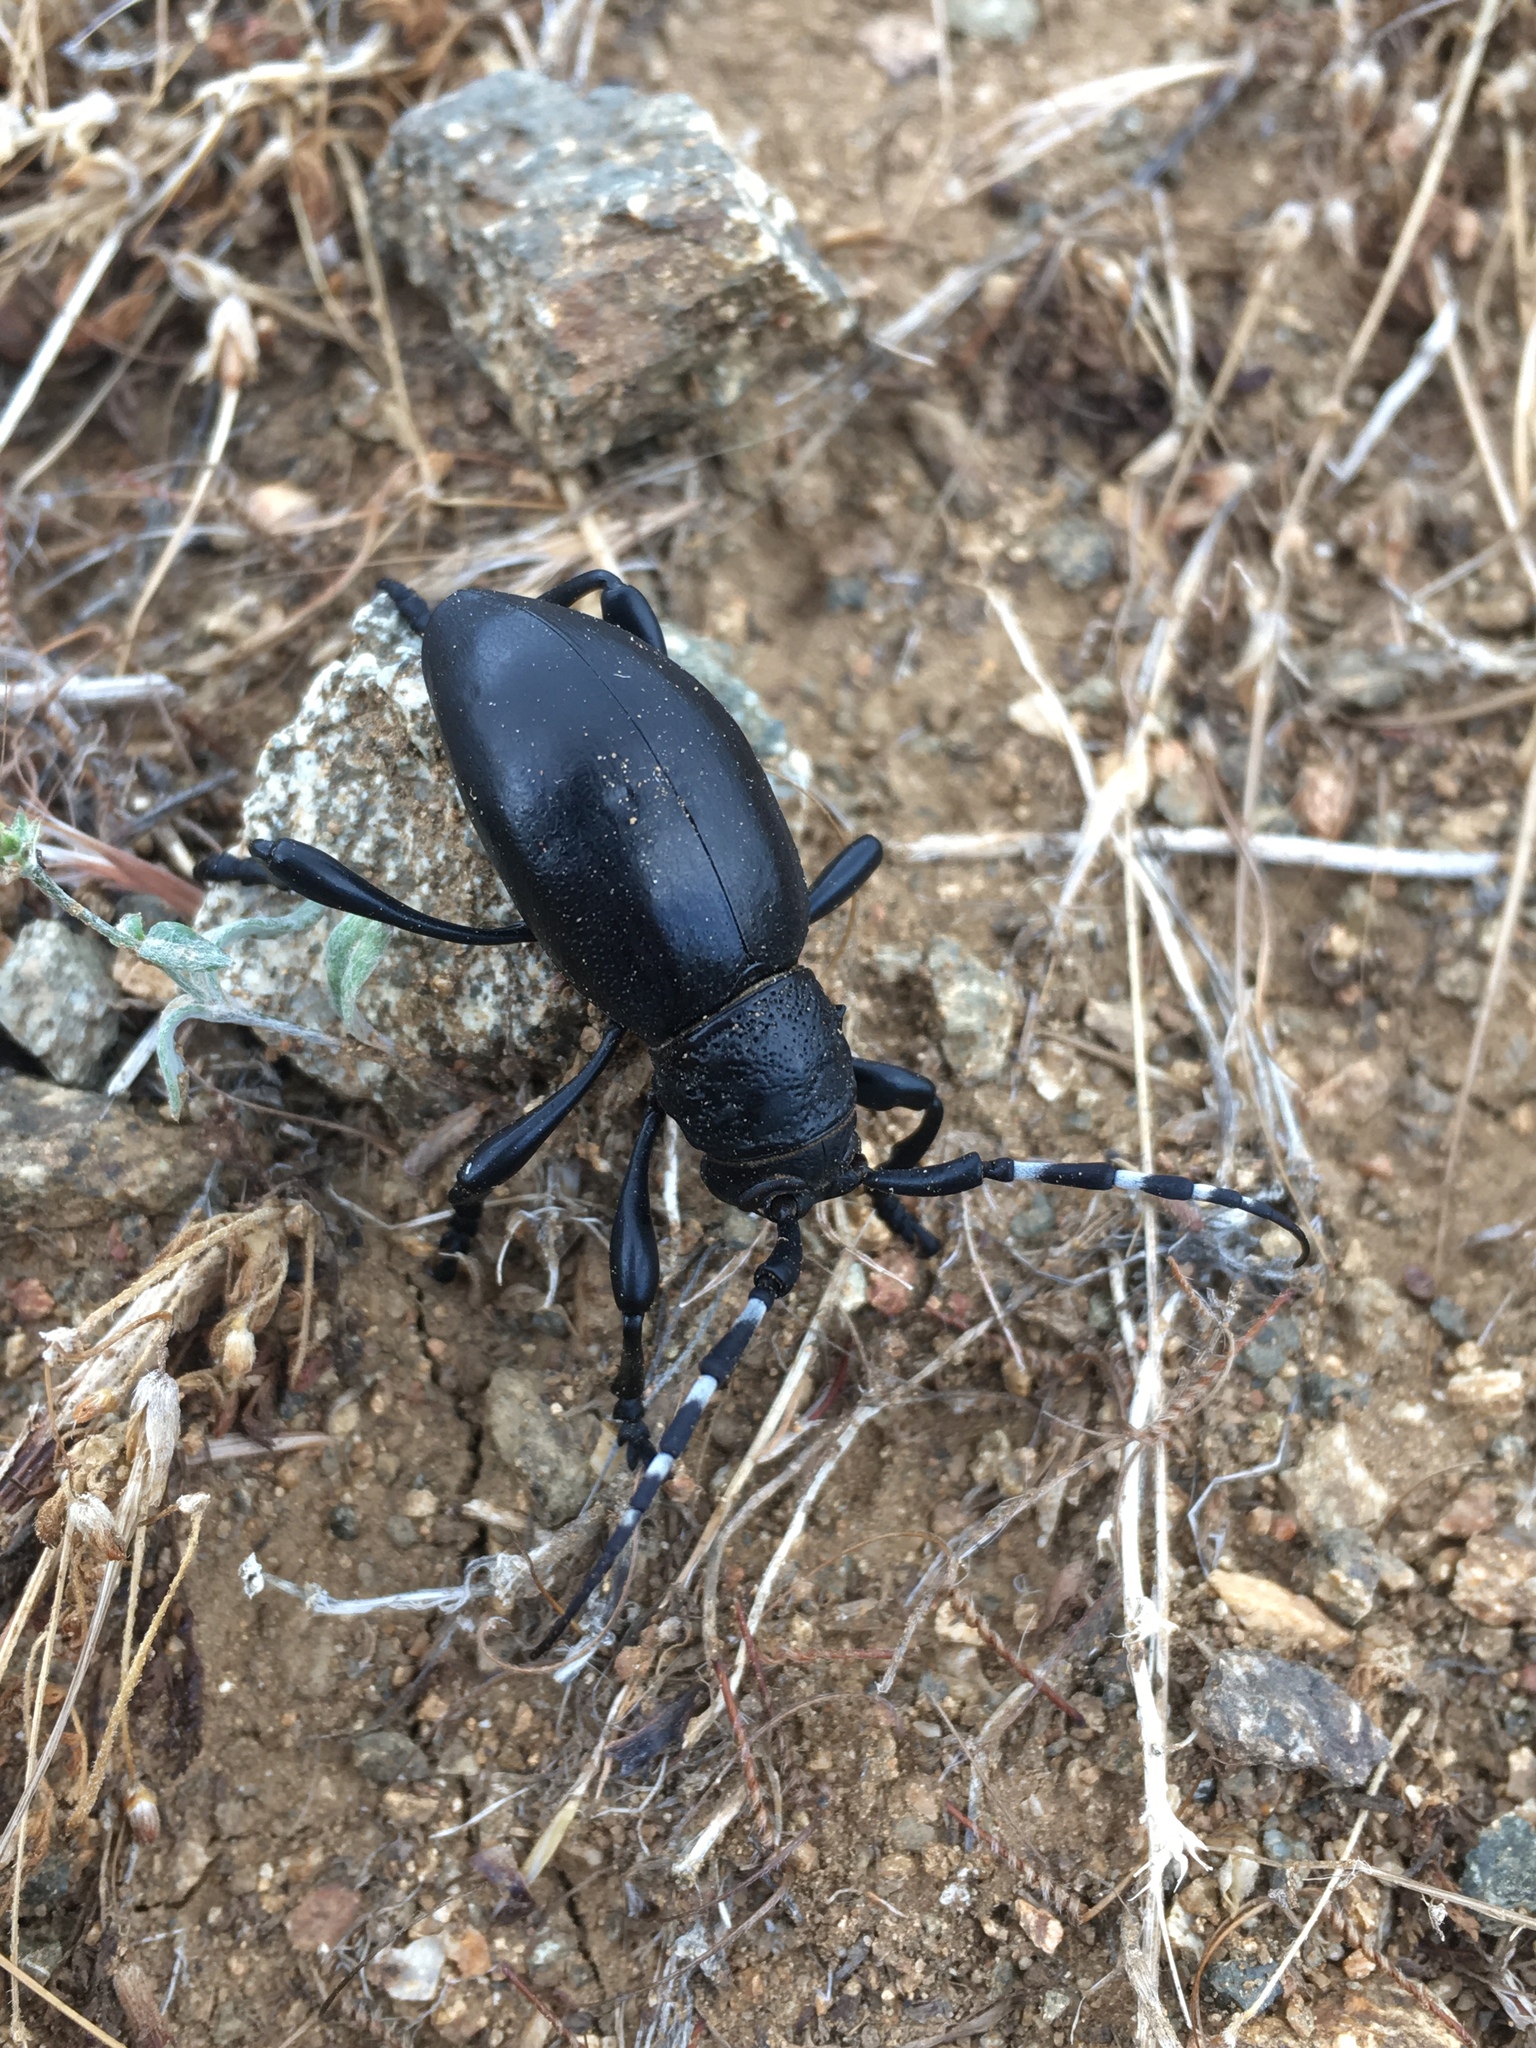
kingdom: Animalia
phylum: Arthropoda
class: Insecta
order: Coleoptera
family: Cerambycidae
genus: Moneilema
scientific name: Moneilema semipunctatum
